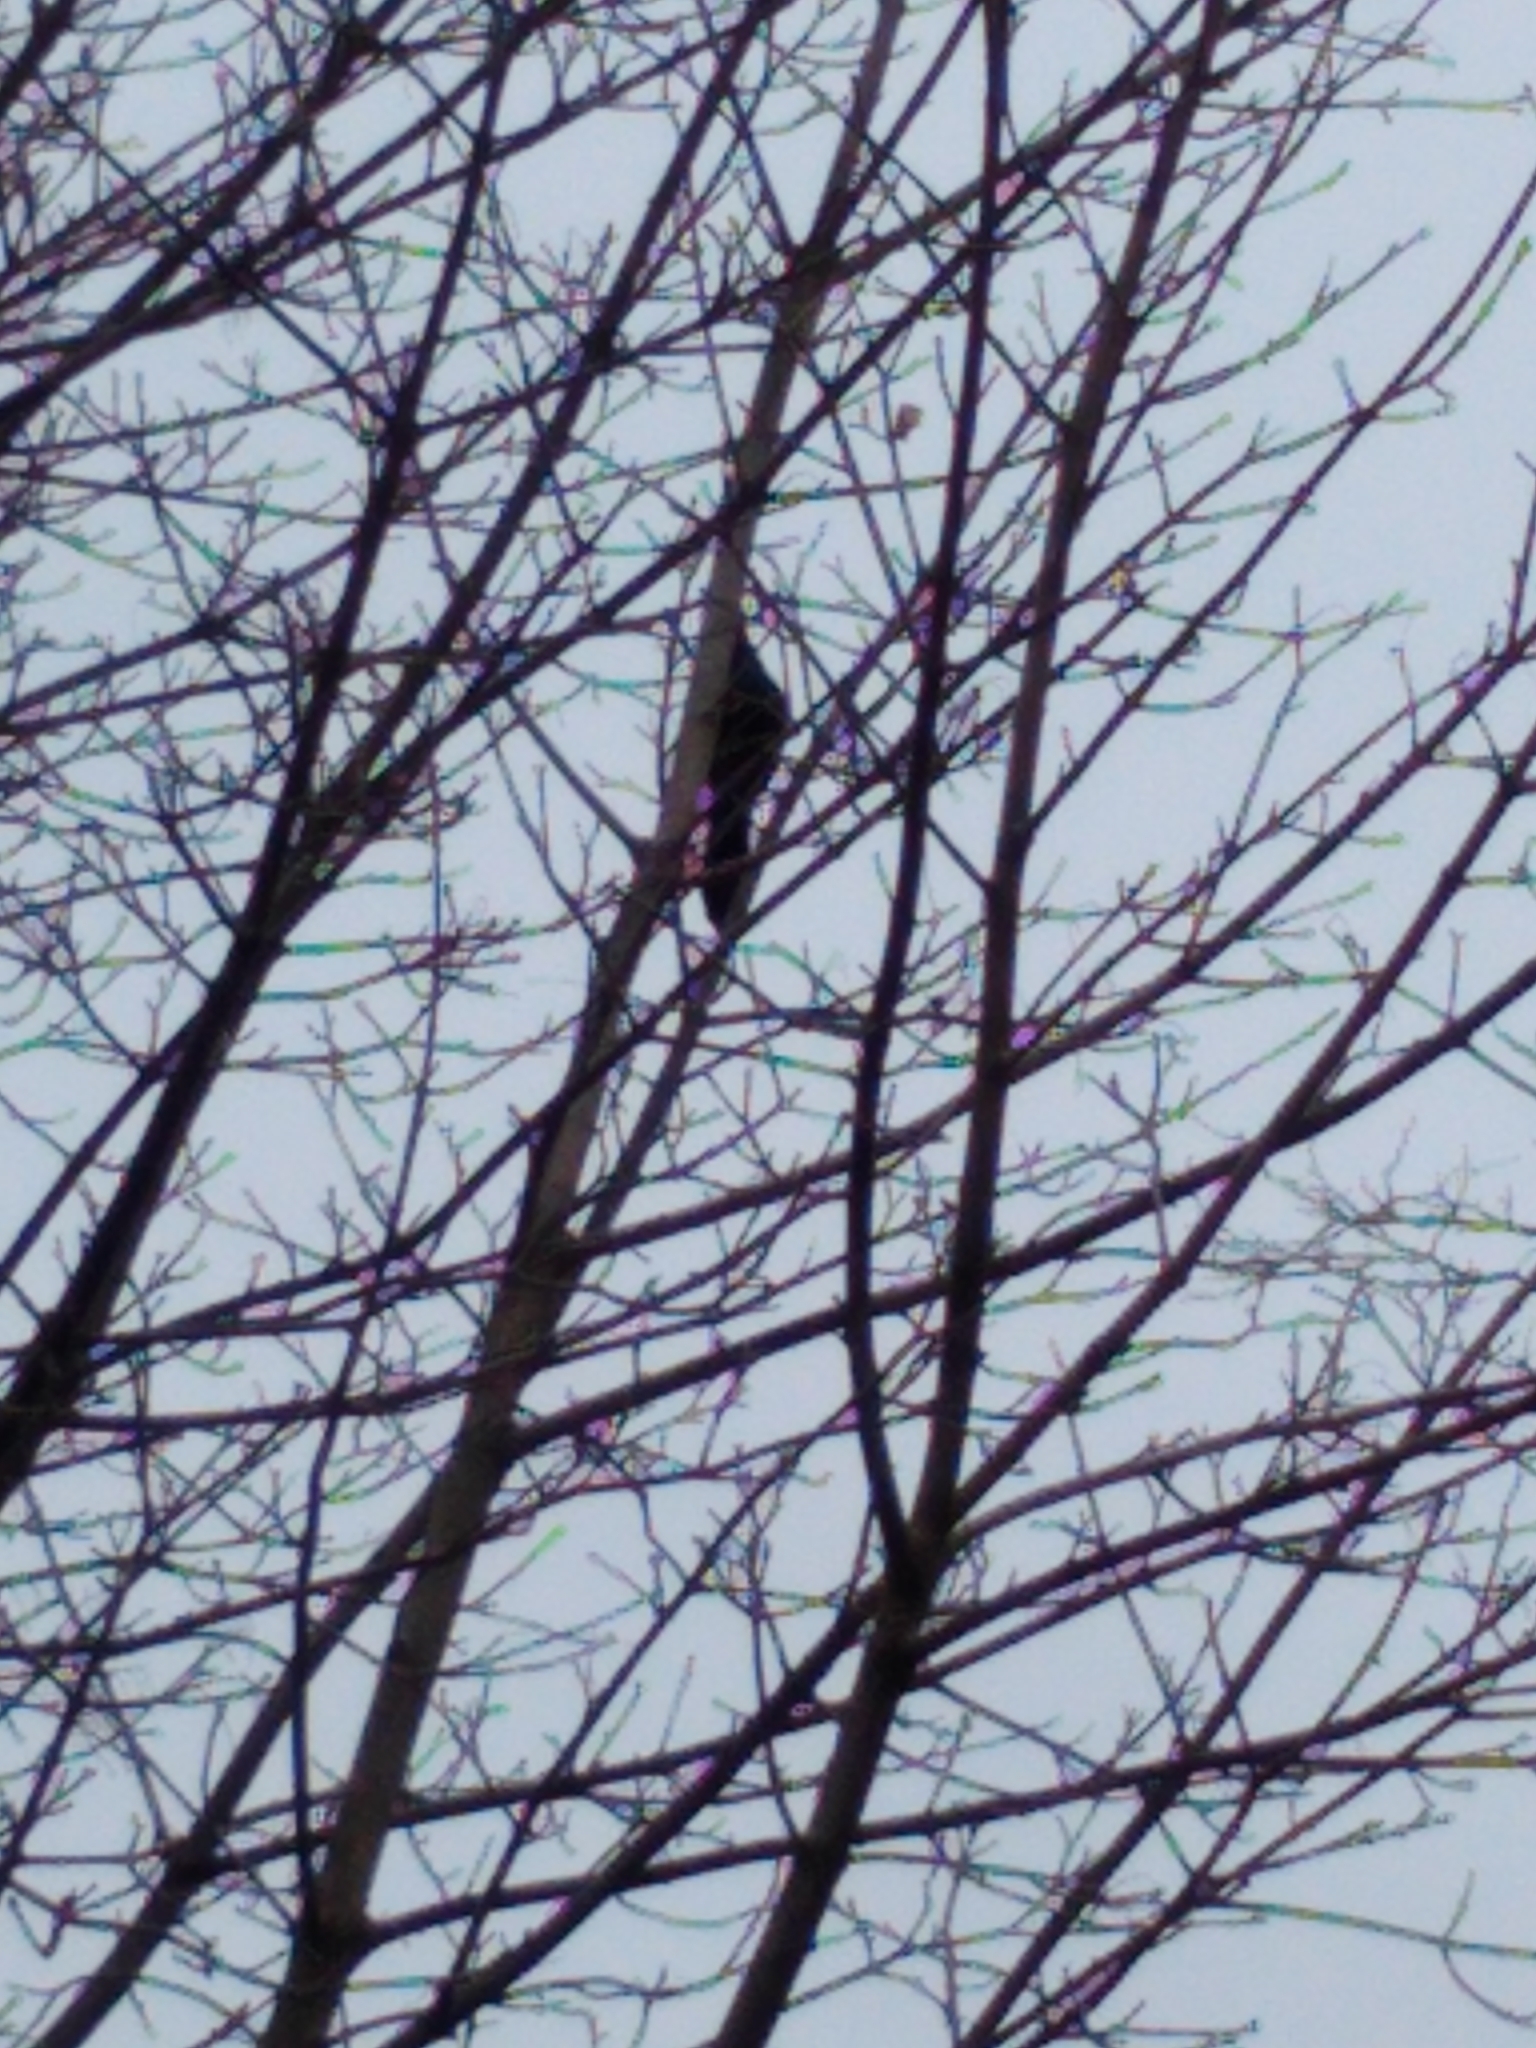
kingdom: Animalia
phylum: Chordata
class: Aves
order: Passeriformes
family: Icteridae
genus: Quiscalus
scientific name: Quiscalus quiscula
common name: Common grackle
